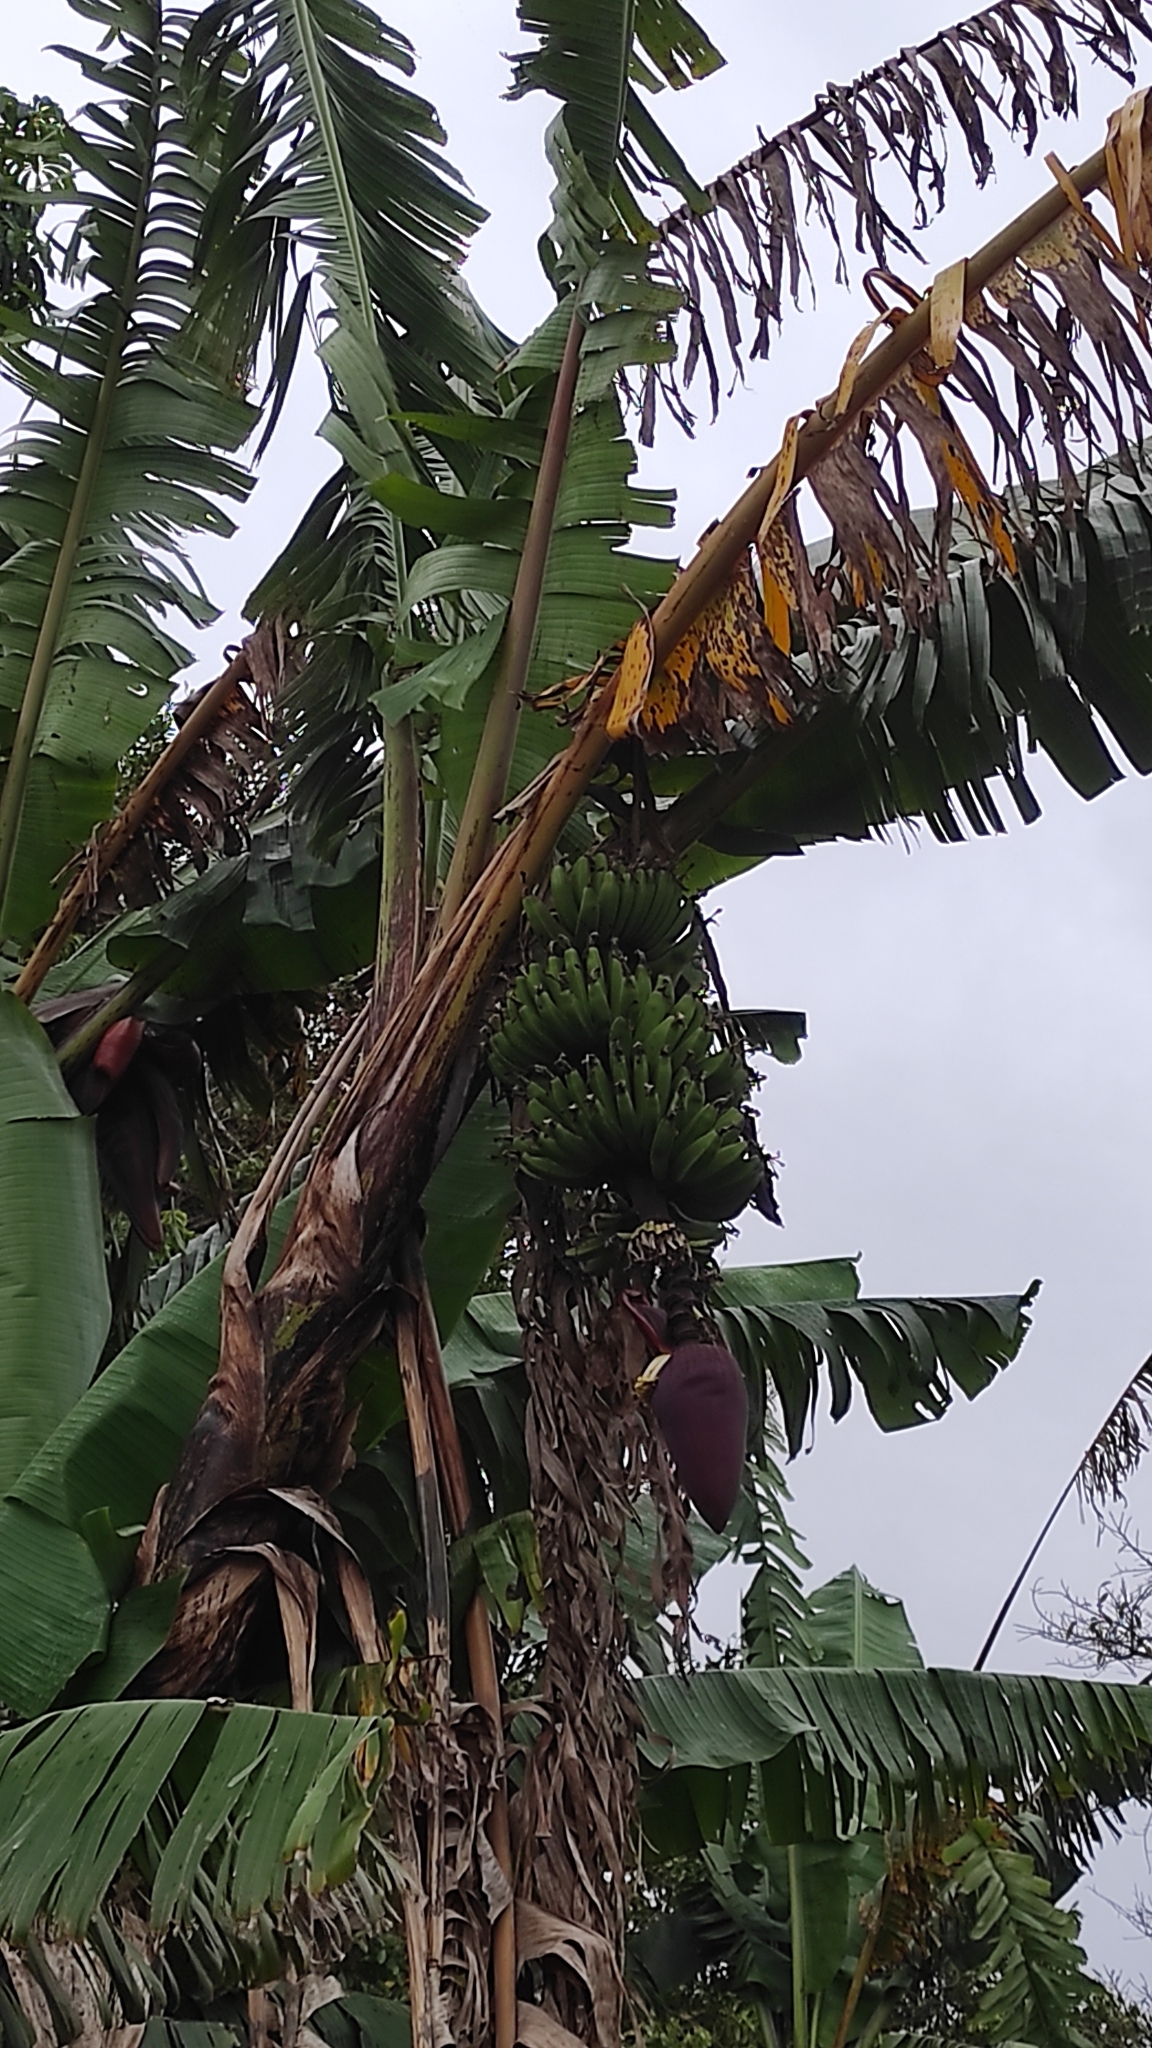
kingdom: Plantae
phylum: Tracheophyta
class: Liliopsida
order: Zingiberales
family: Musaceae
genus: Musa
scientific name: Musa acuminata
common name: Edible banana
